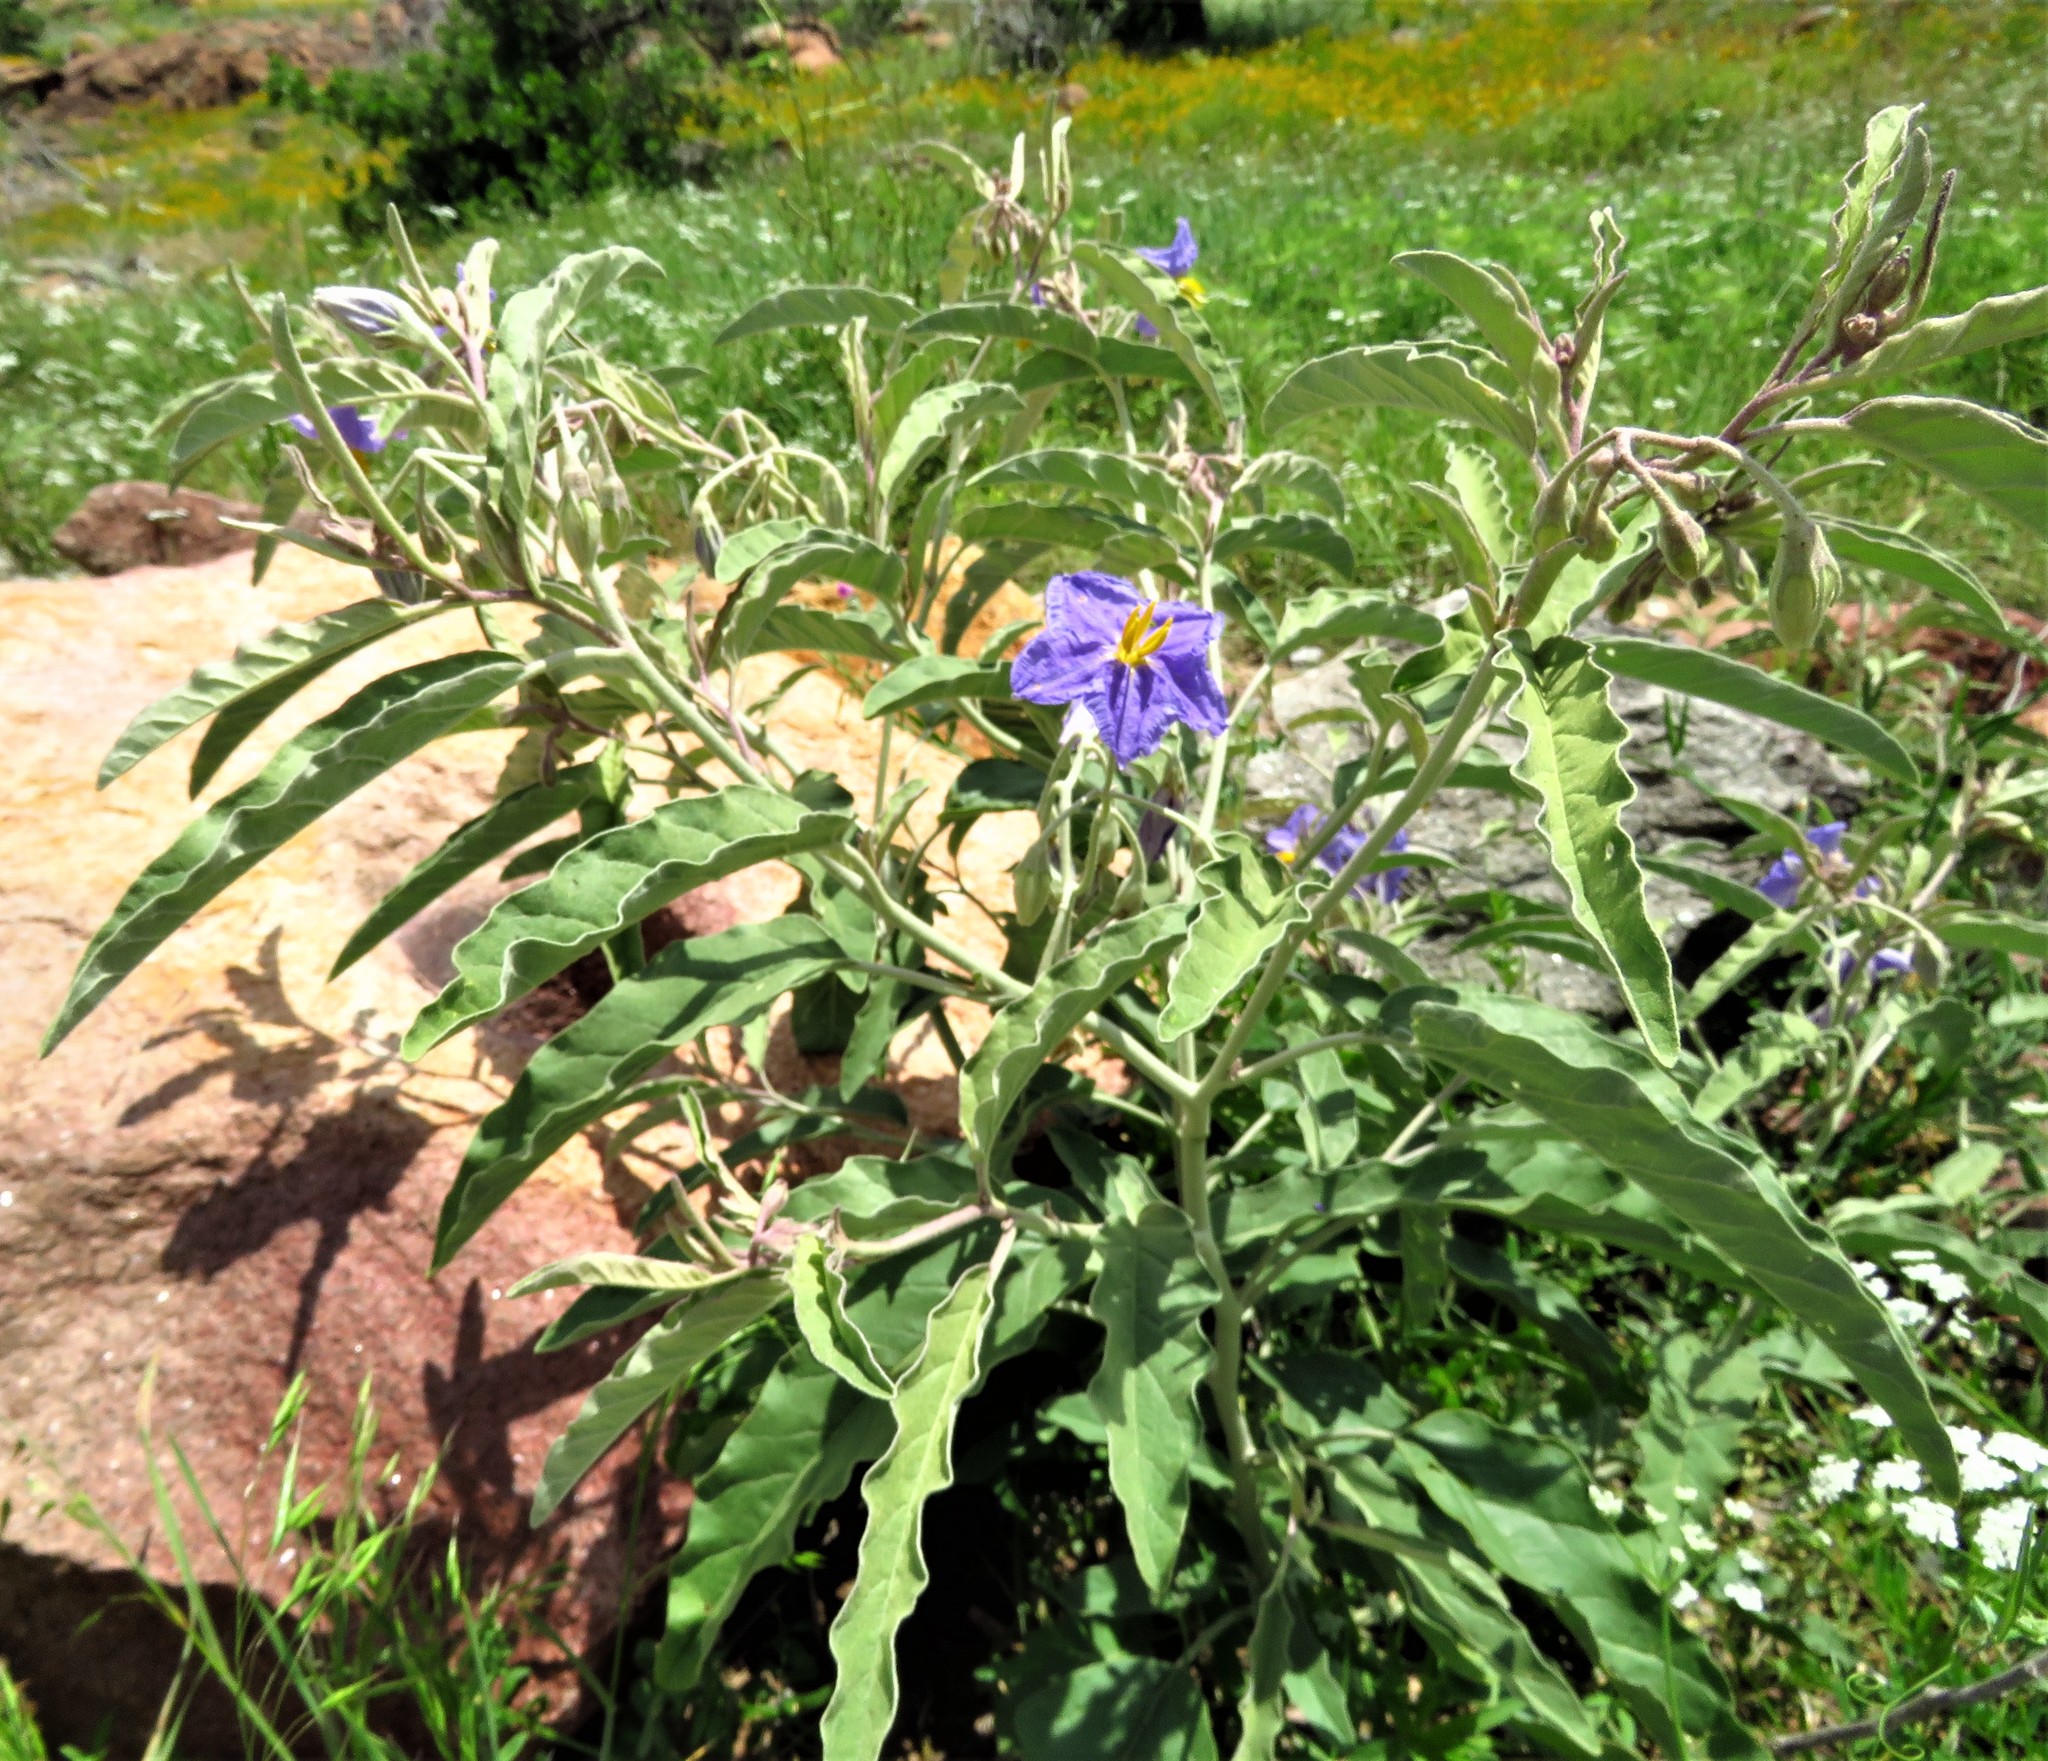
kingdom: Plantae
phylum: Tracheophyta
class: Magnoliopsida
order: Solanales
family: Solanaceae
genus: Solanum
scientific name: Solanum elaeagnifolium
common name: Silverleaf nightshade
